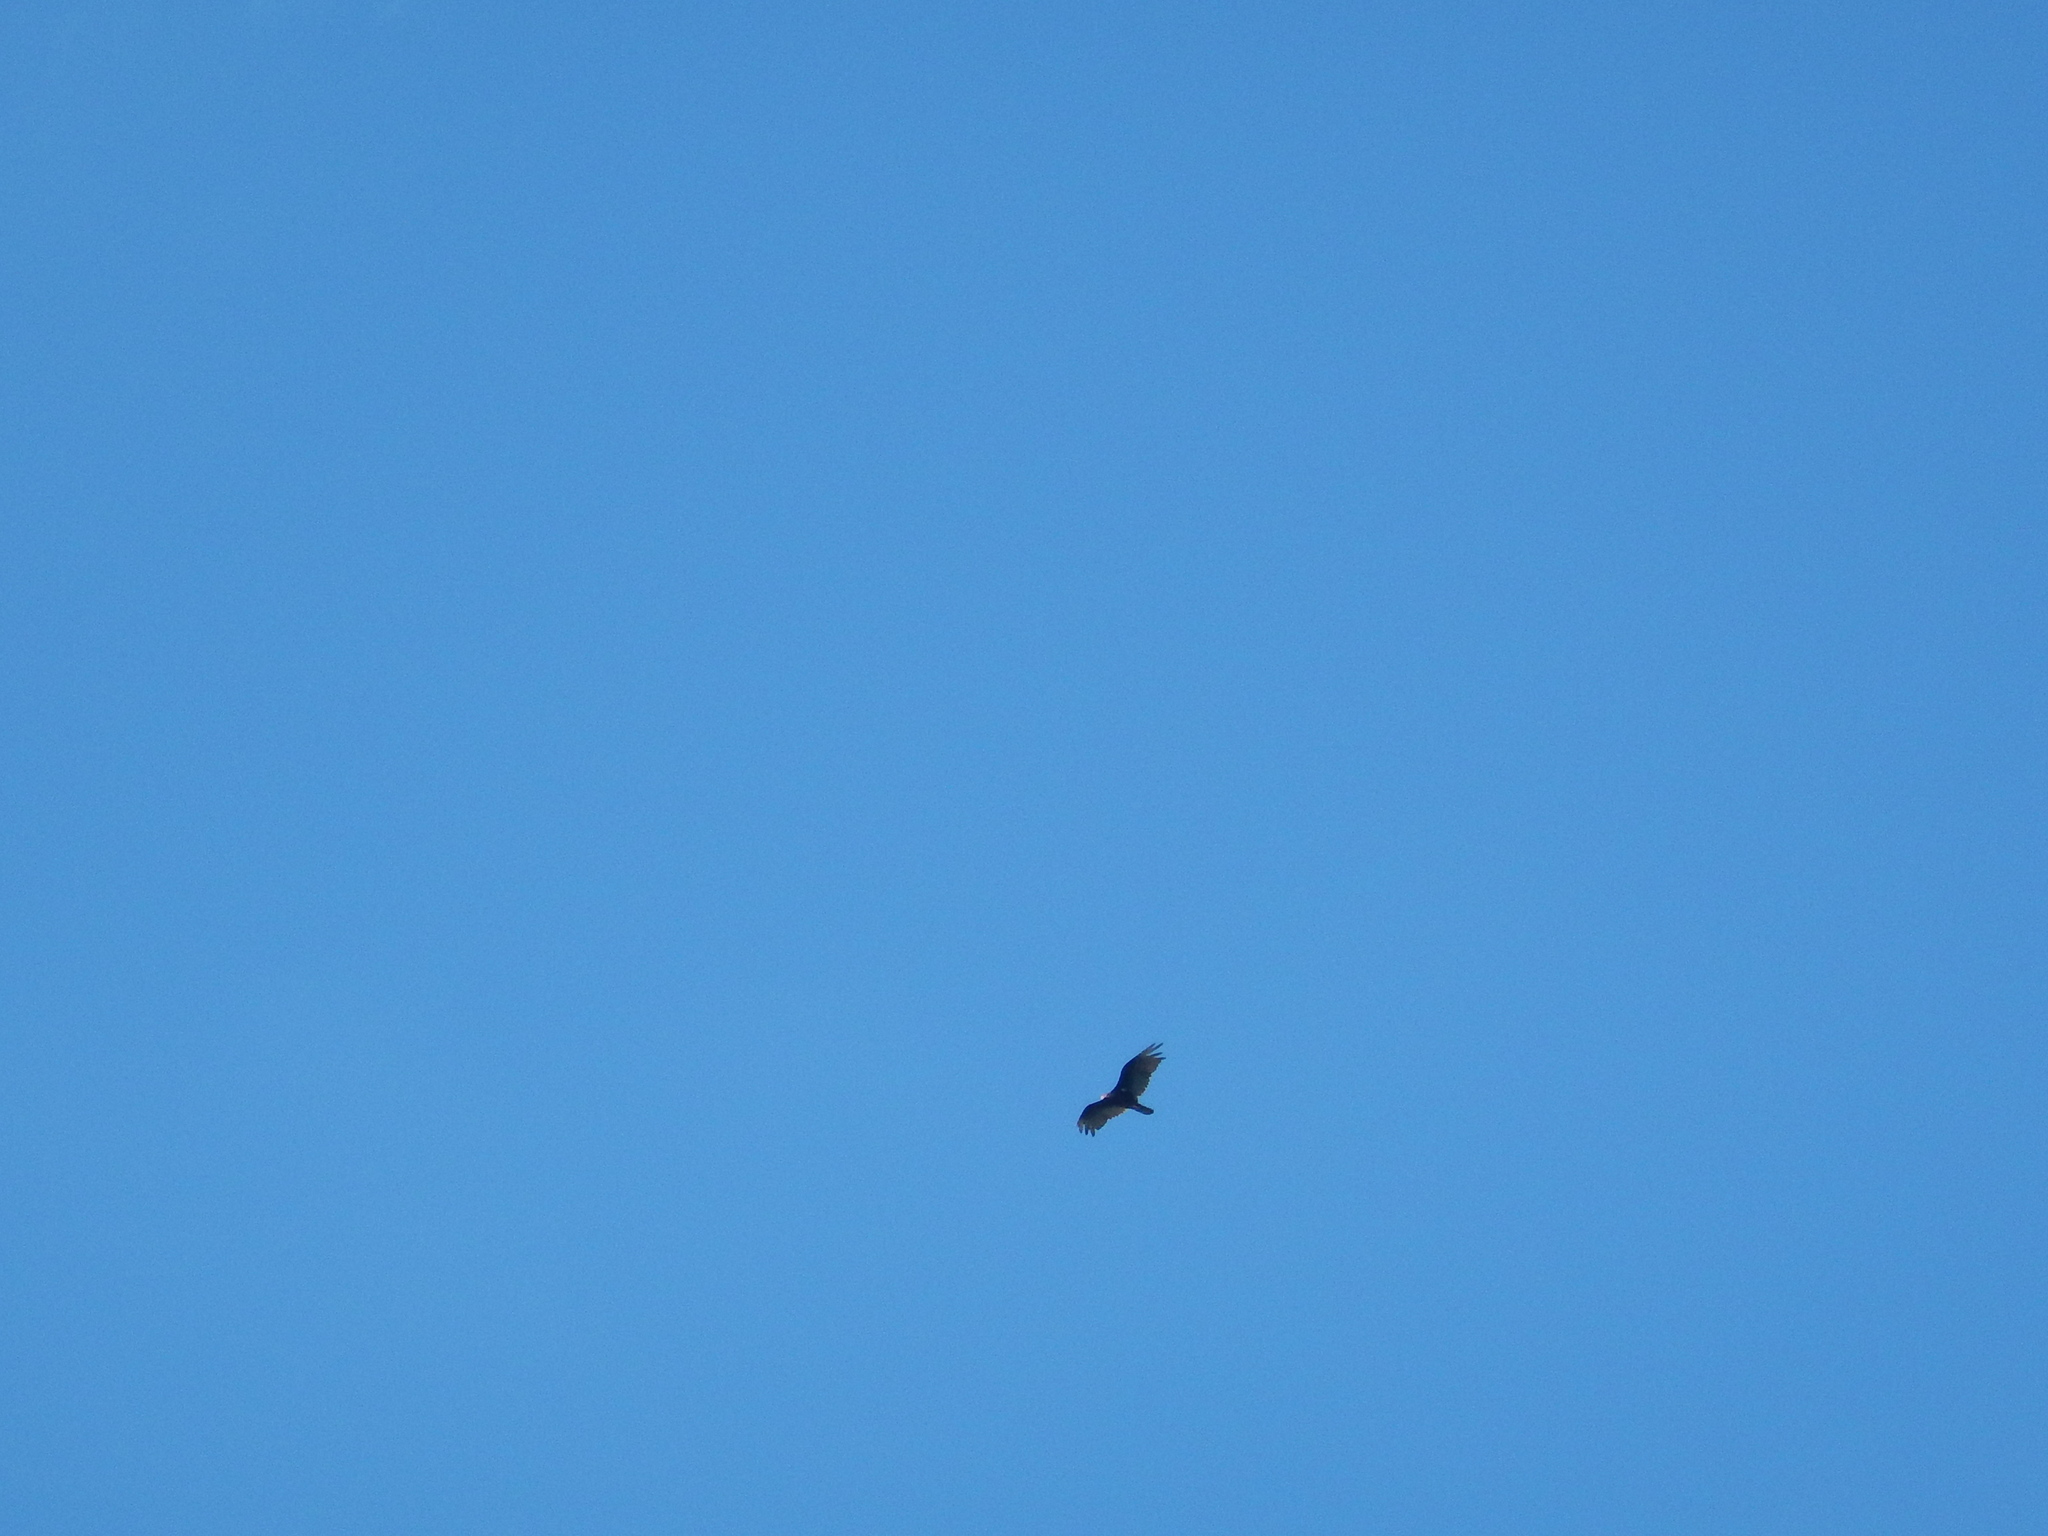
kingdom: Animalia
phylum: Chordata
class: Aves
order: Accipitriformes
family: Cathartidae
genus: Cathartes
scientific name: Cathartes aura
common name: Turkey vulture
